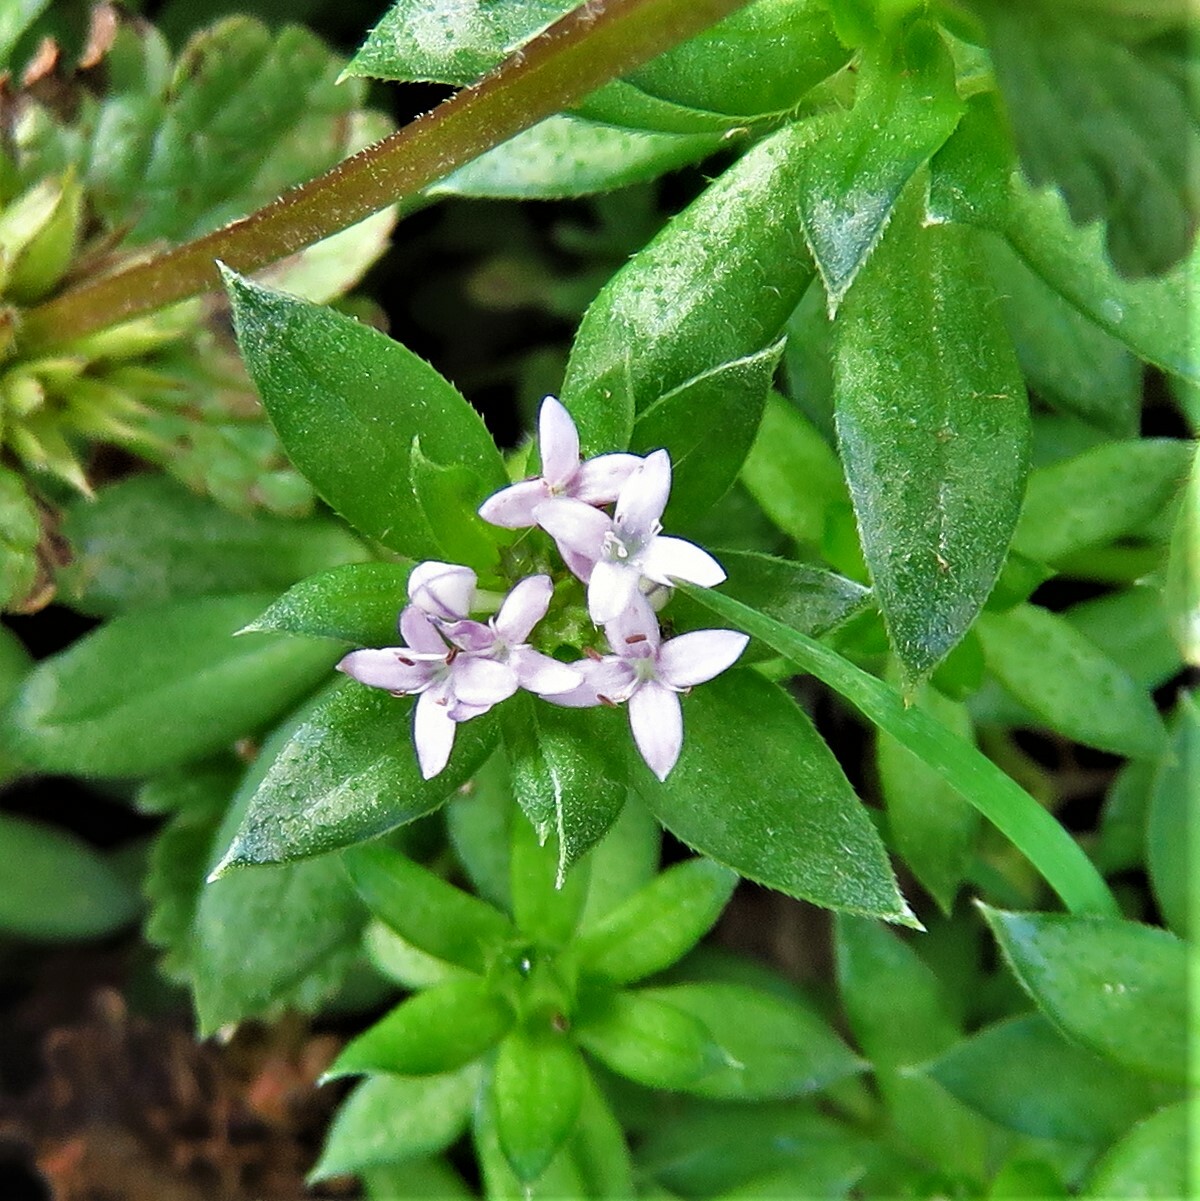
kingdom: Plantae
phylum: Tracheophyta
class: Magnoliopsida
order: Gentianales
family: Rubiaceae
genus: Sherardia
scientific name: Sherardia arvensis
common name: Field madder
